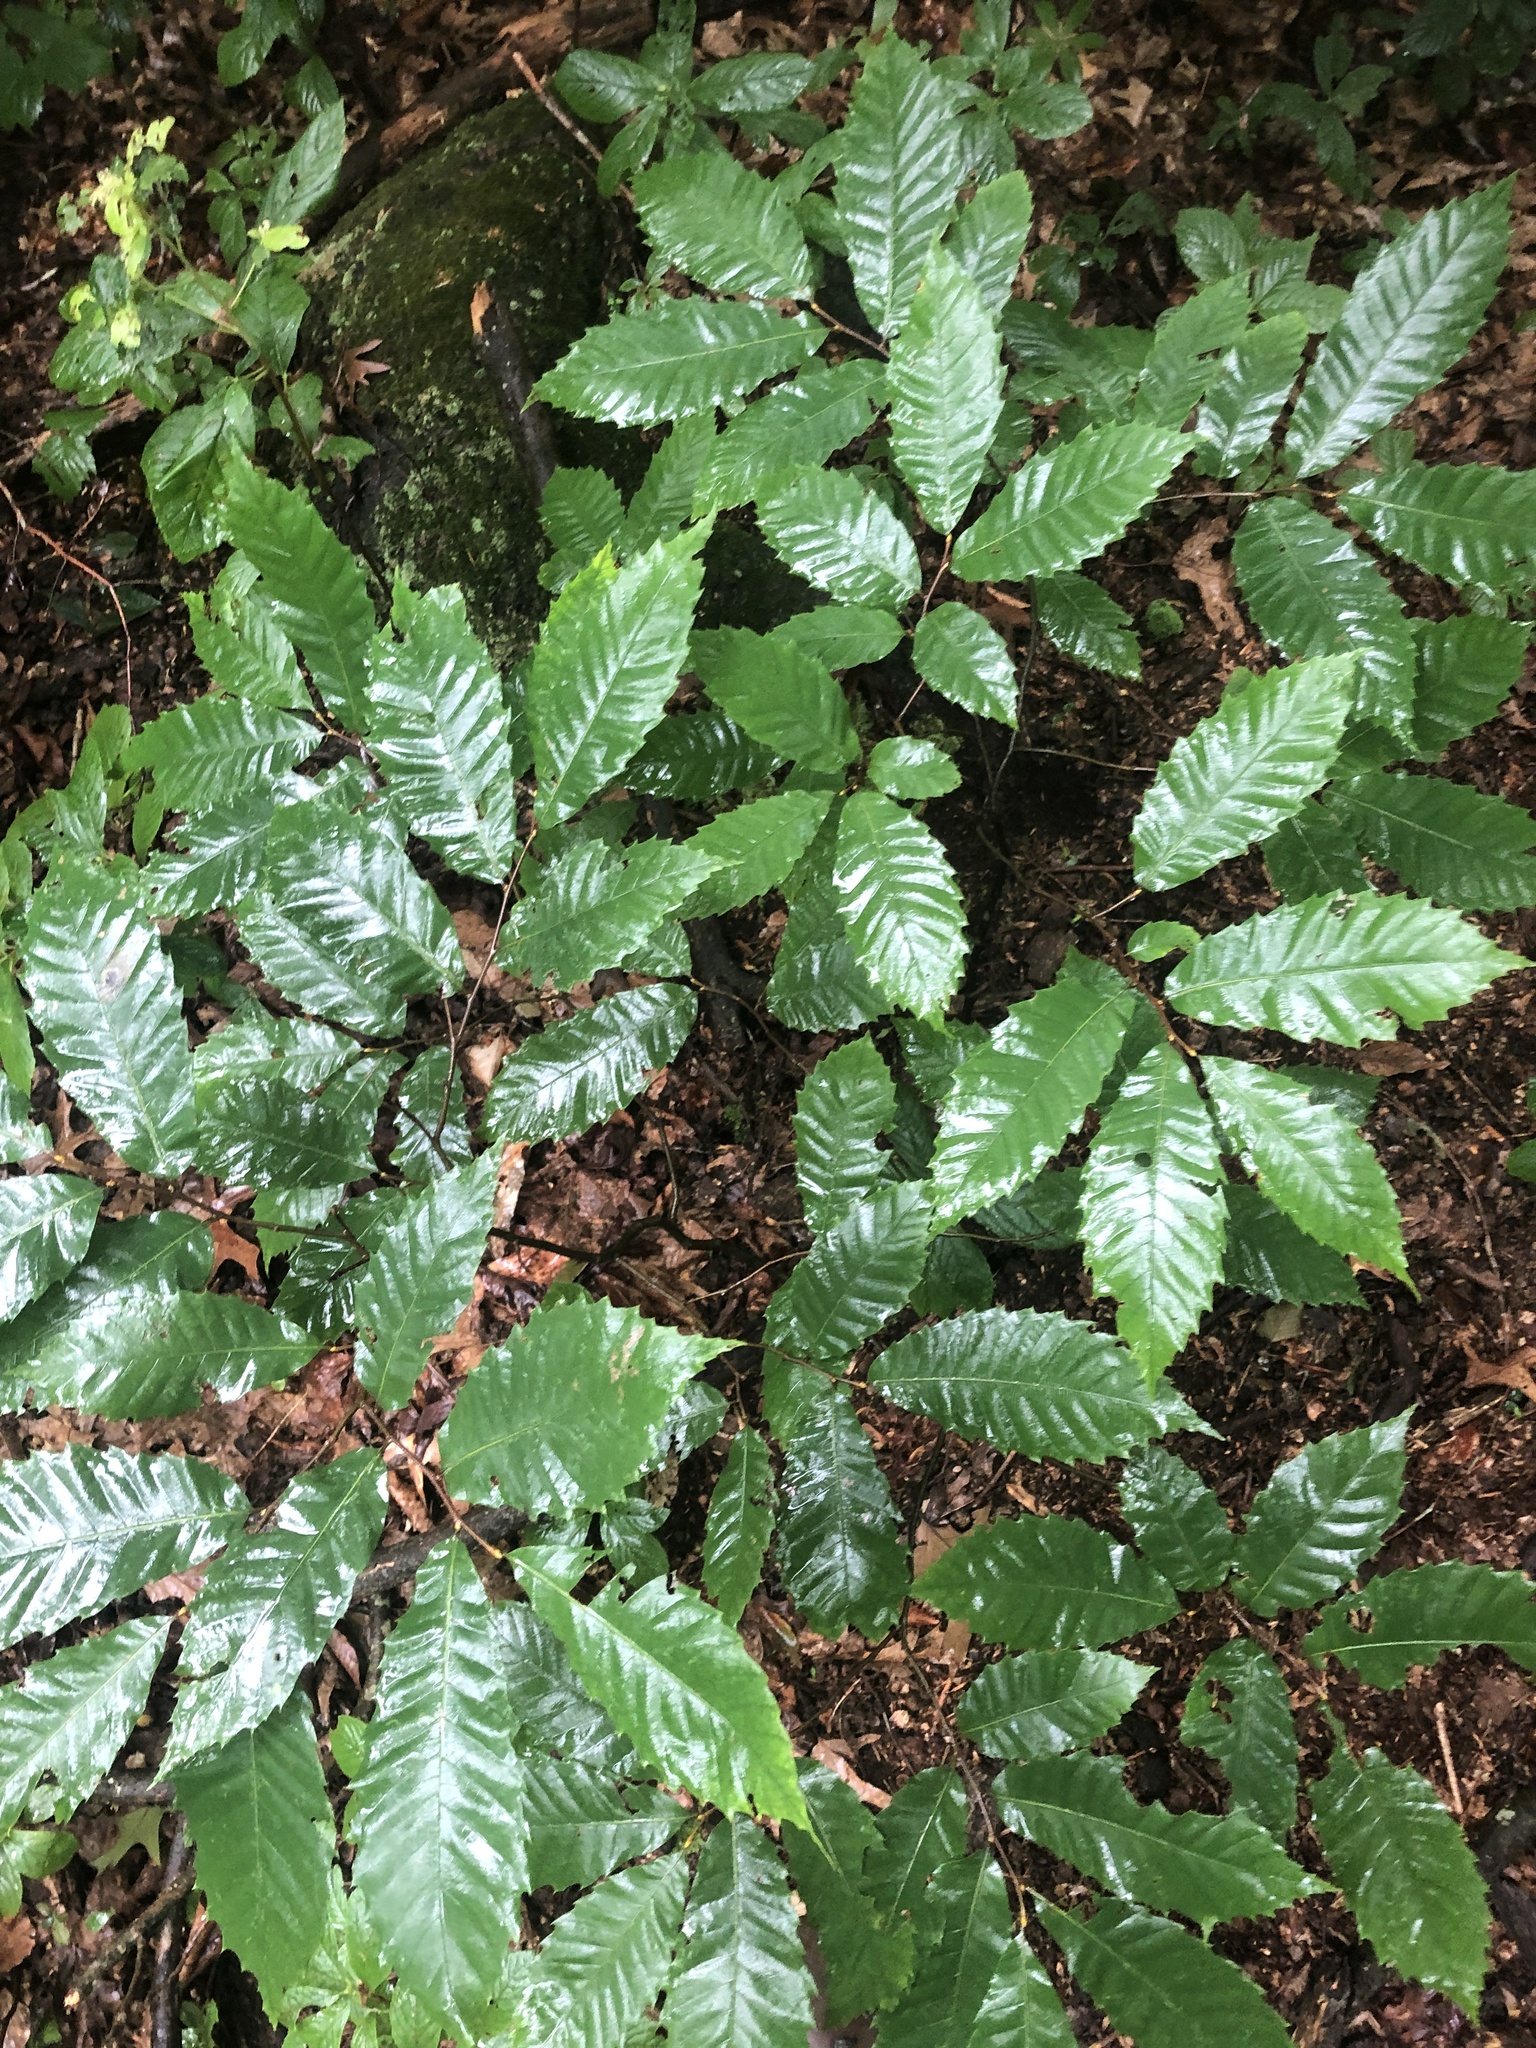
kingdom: Plantae
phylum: Tracheophyta
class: Magnoliopsida
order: Fagales
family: Fagaceae
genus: Castanea
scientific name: Castanea dentata
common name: American chestnut
